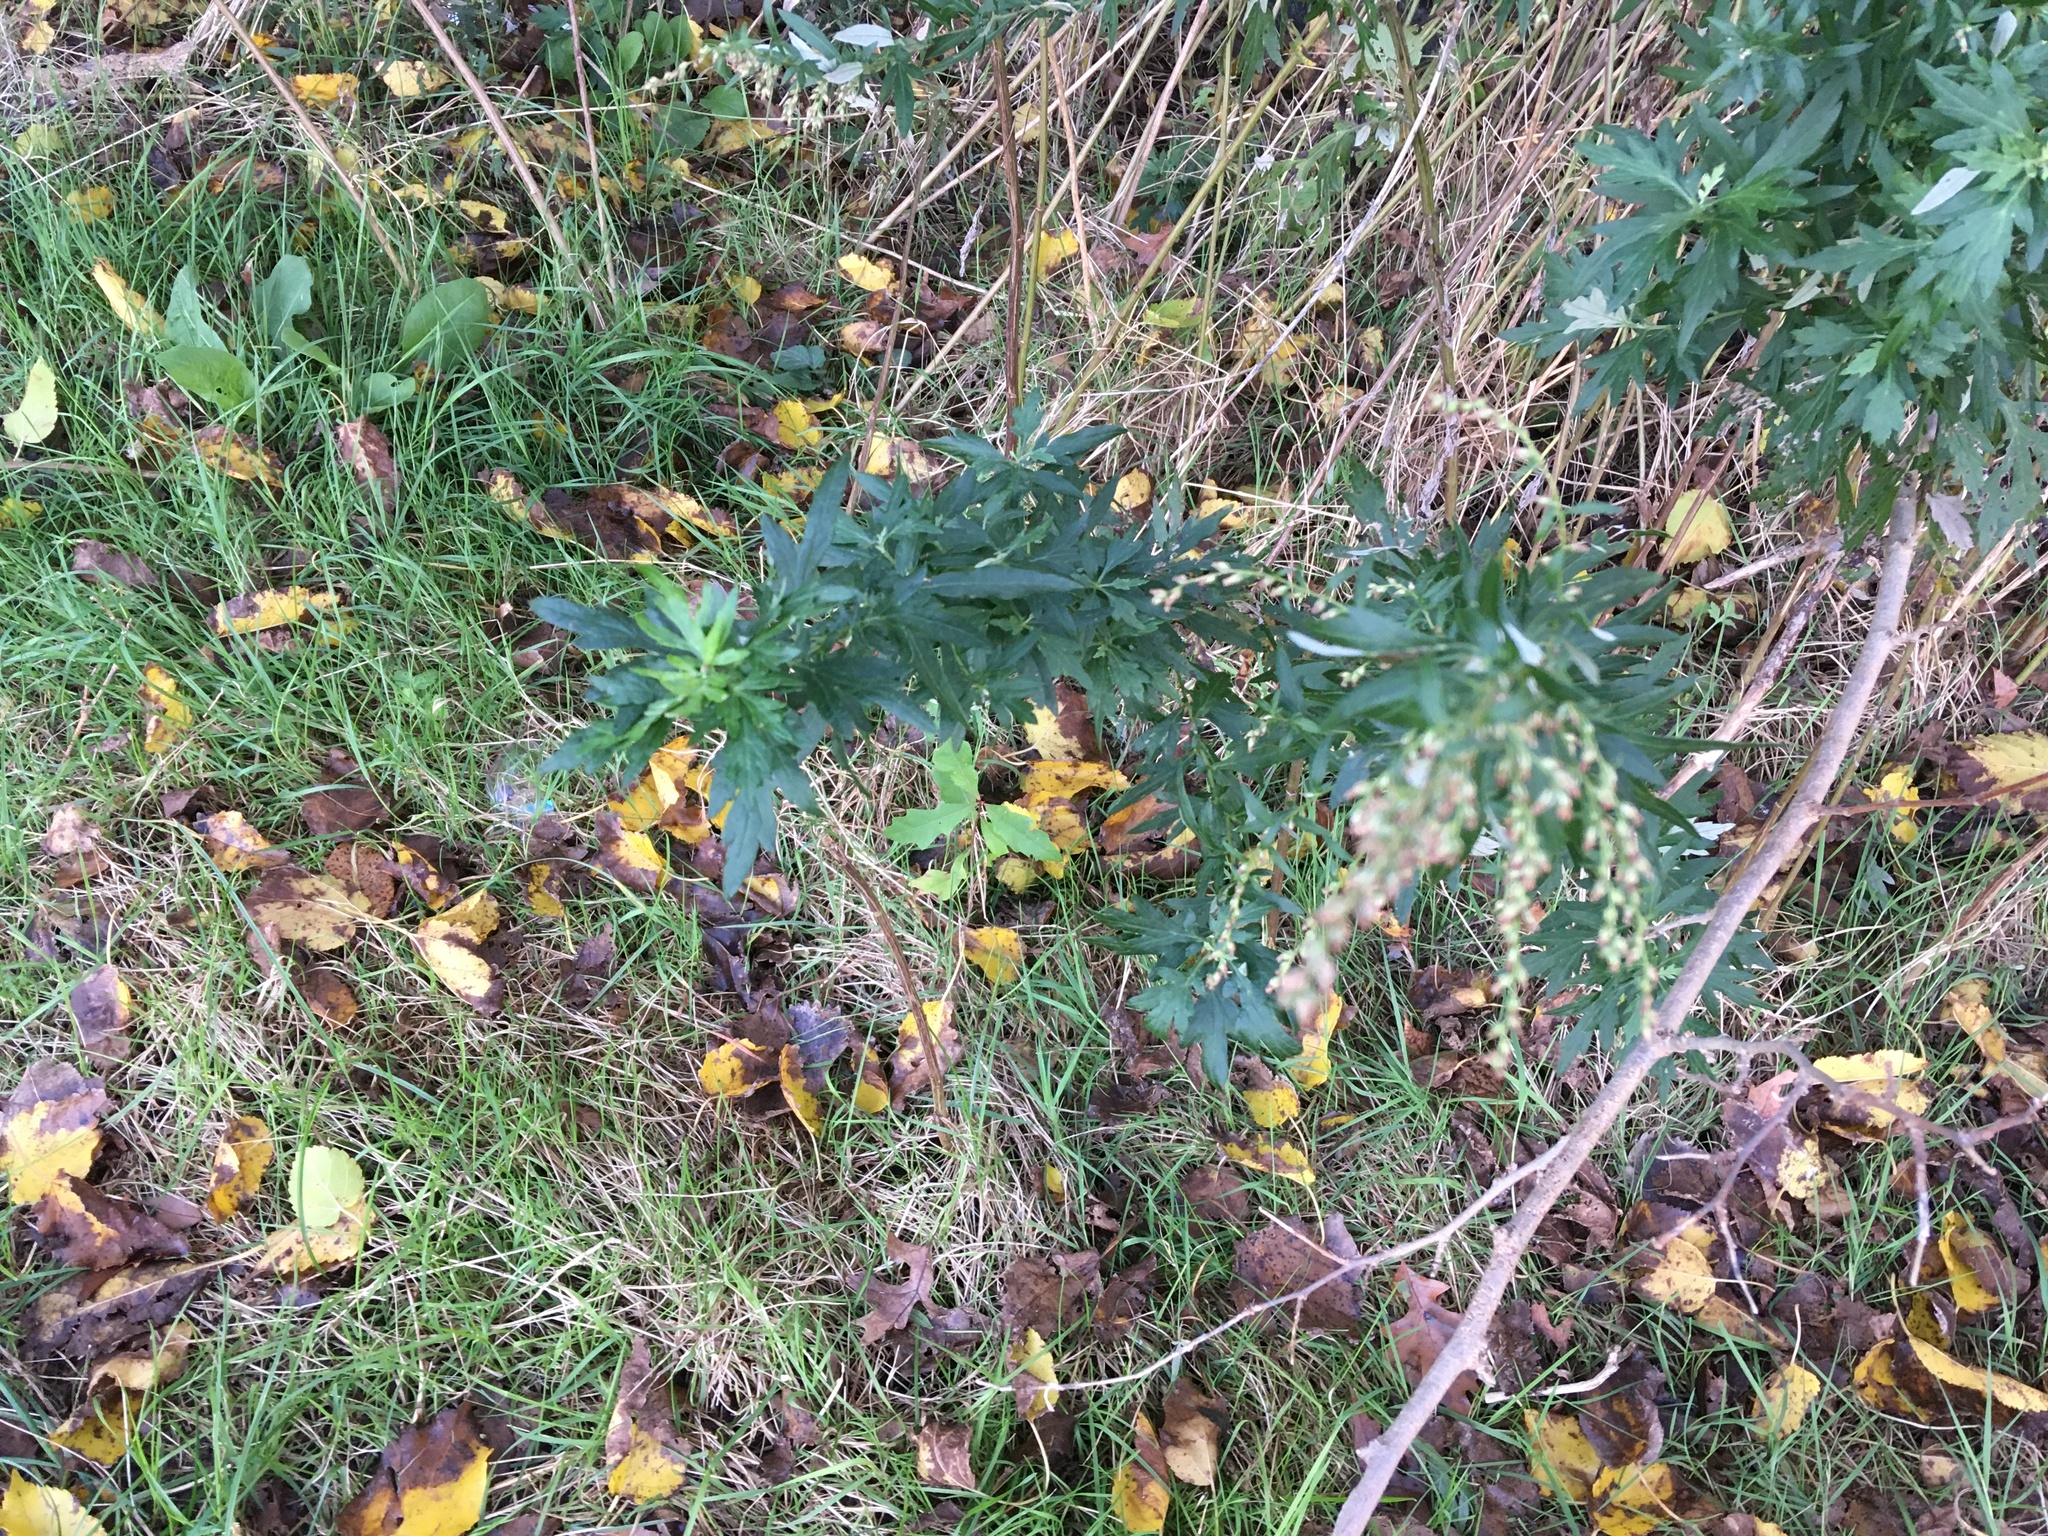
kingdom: Plantae
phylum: Tracheophyta
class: Magnoliopsida
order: Asterales
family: Asteraceae
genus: Artemisia
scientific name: Artemisia vulgaris
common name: Mugwort
